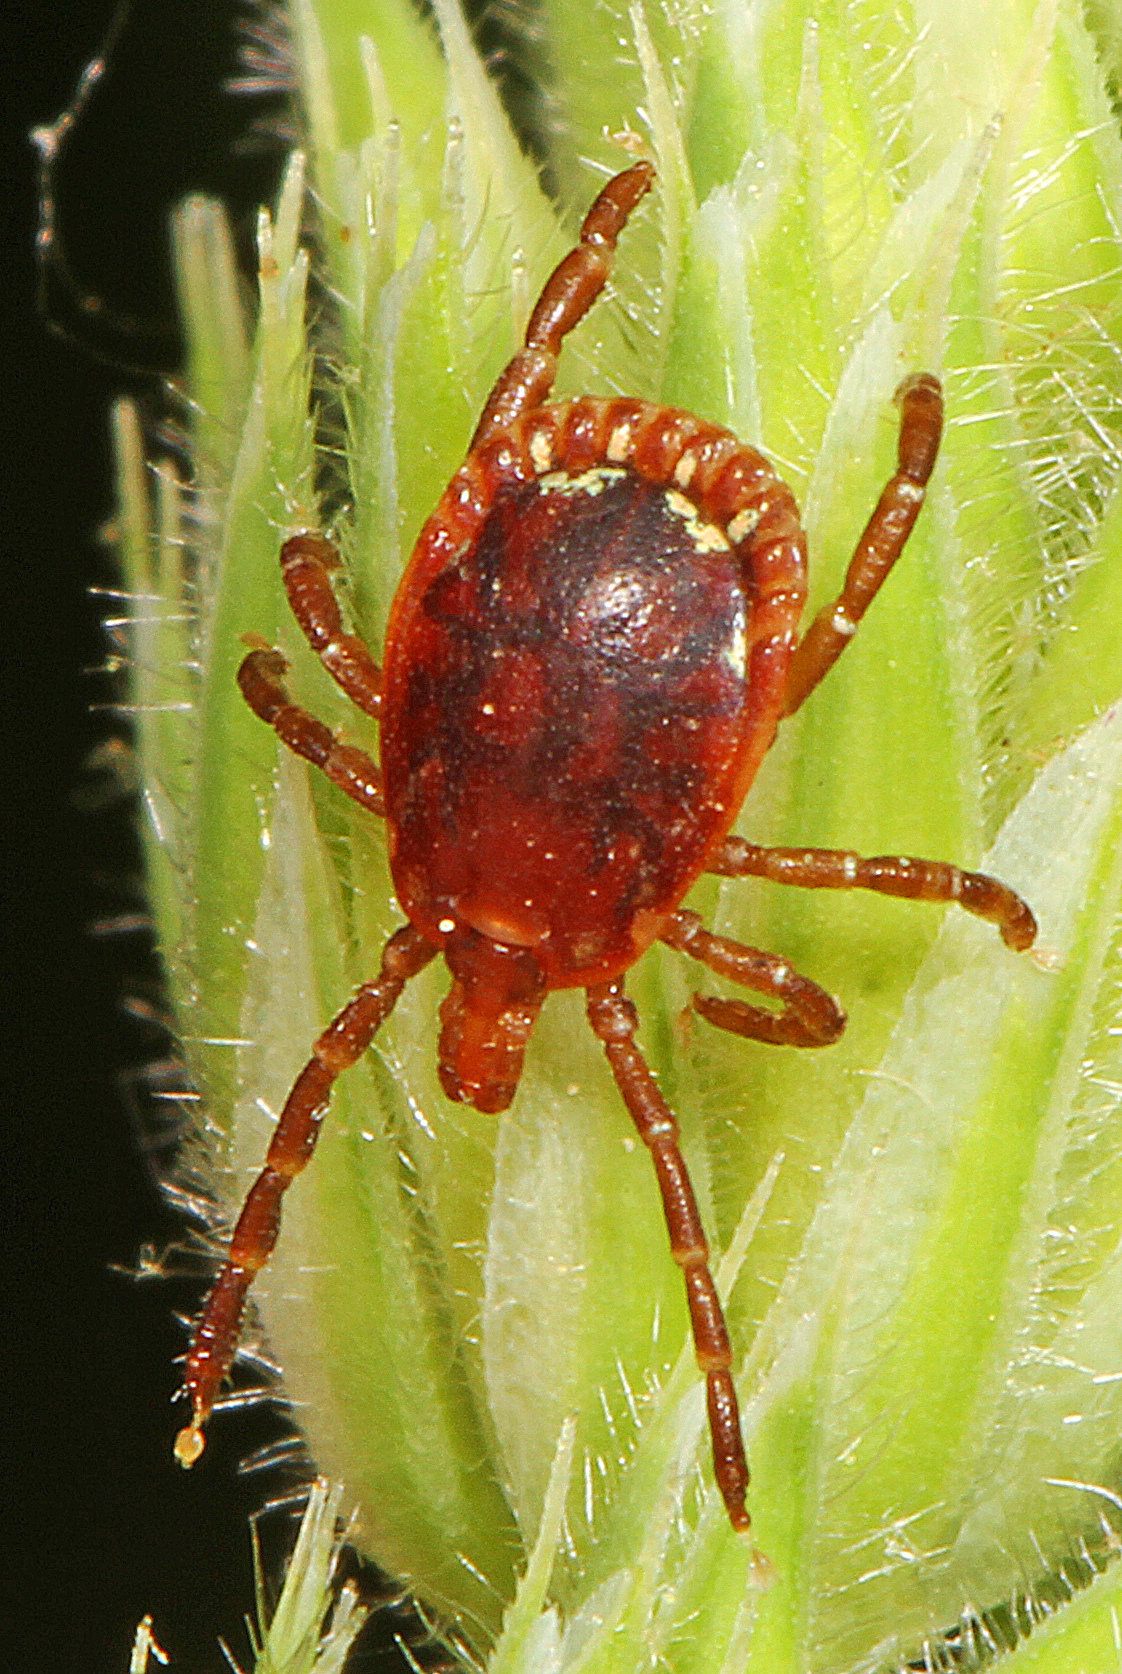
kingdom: Animalia
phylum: Arthropoda
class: Arachnida
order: Ixodida
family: Ixodidae
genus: Amblyomma
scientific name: Amblyomma americanum
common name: Lone star tick
